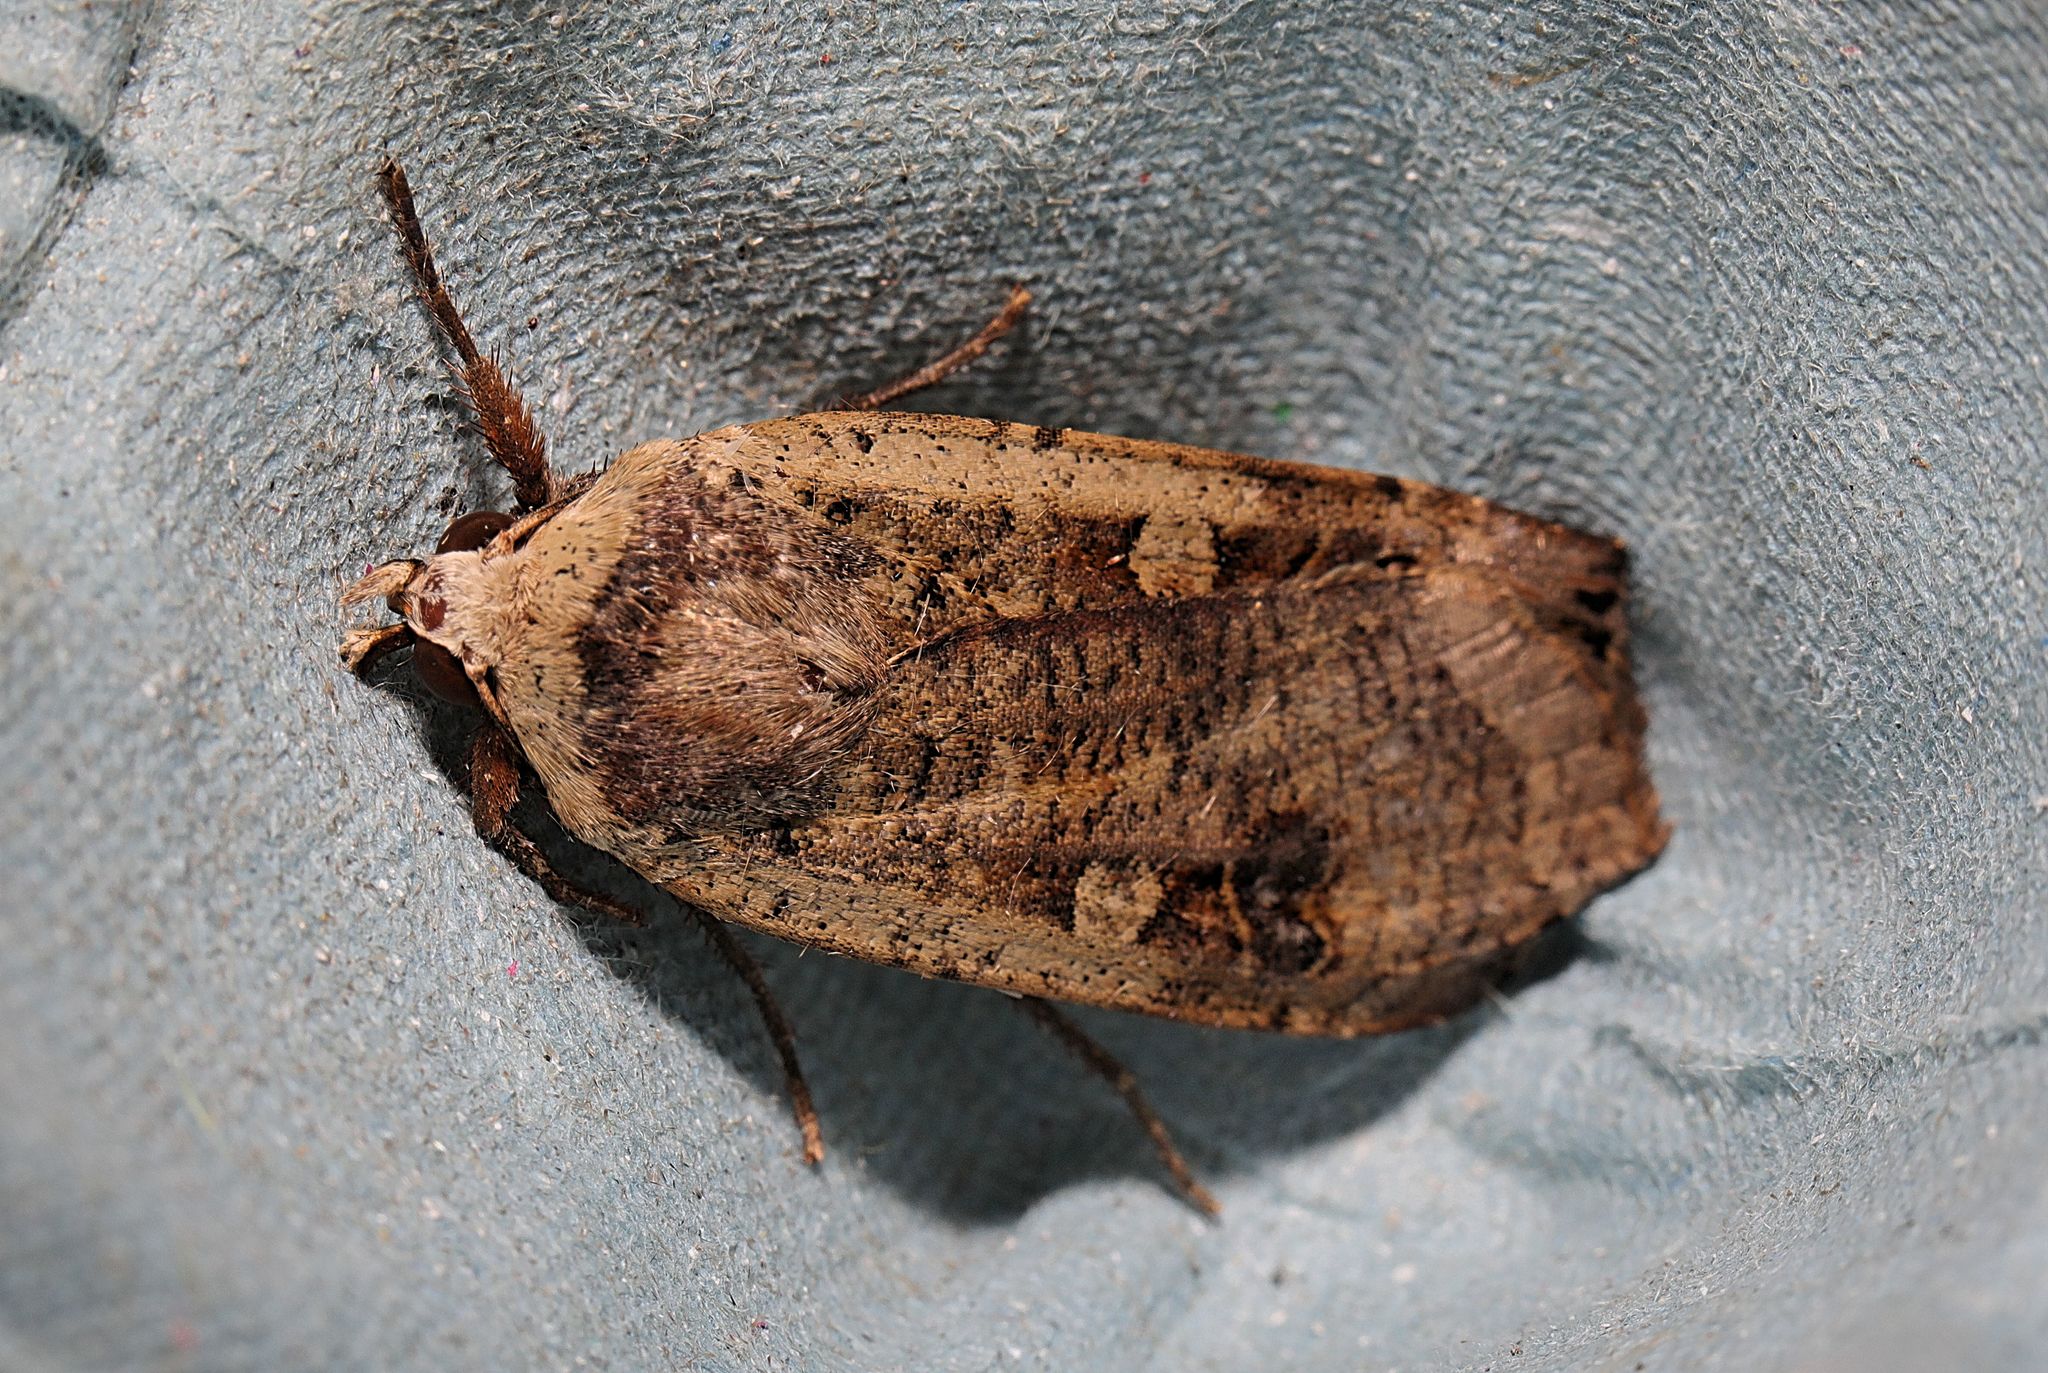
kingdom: Animalia
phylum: Arthropoda
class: Insecta
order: Lepidoptera
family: Noctuidae
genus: Noctua
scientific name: Noctua pronuba
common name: Large yellow underwing
